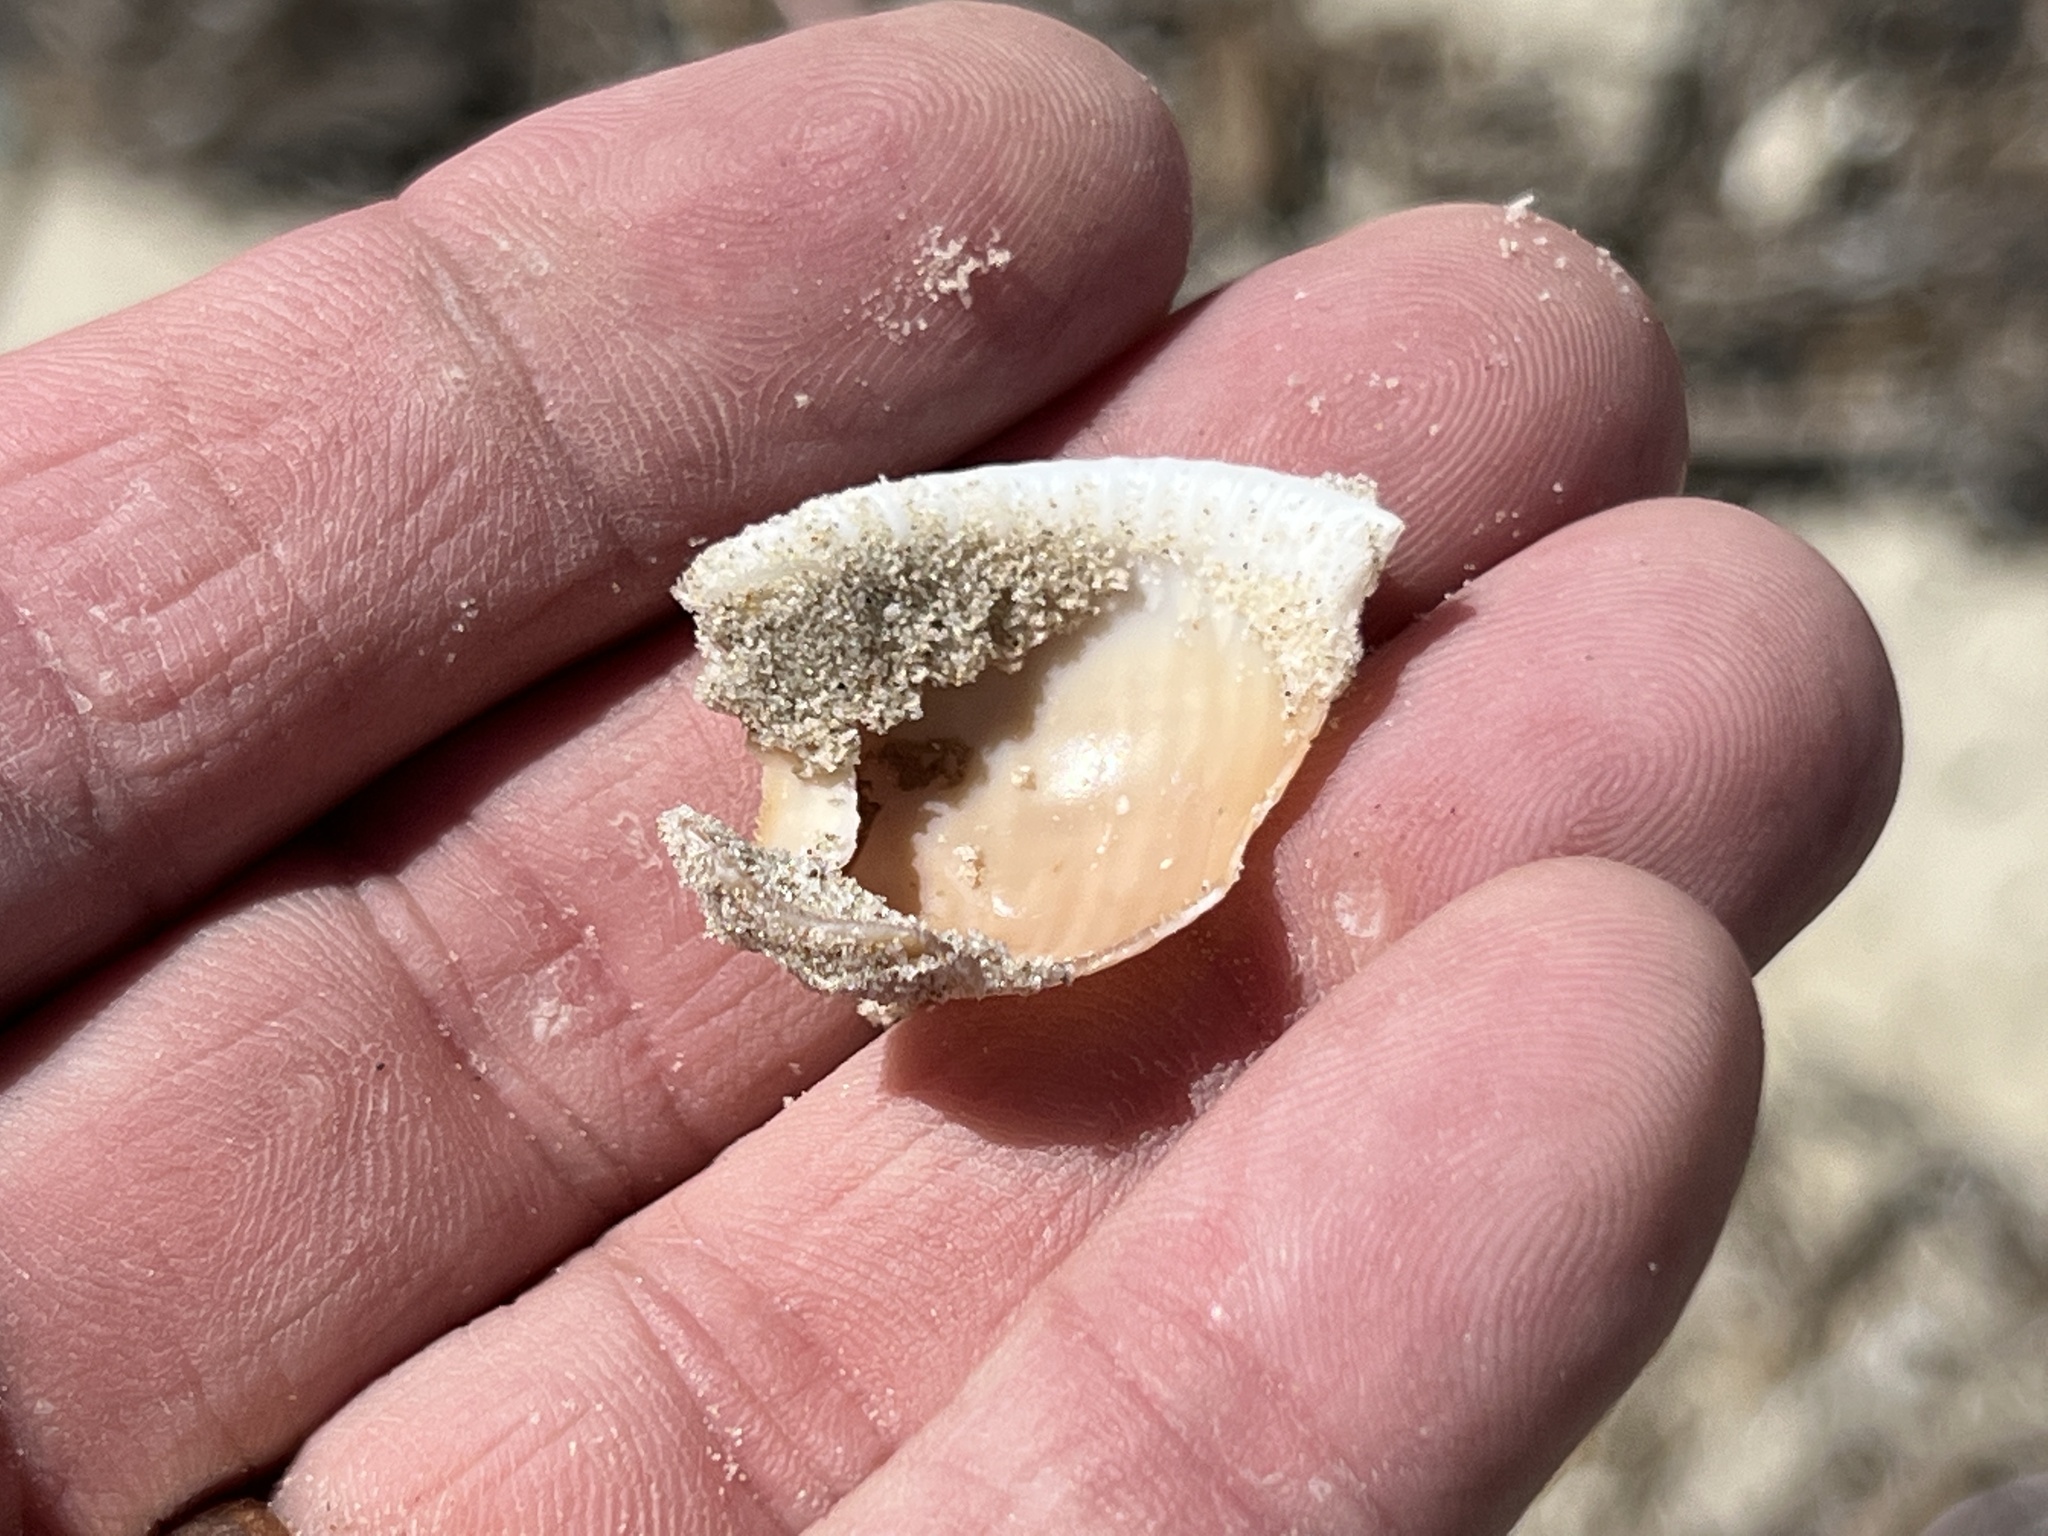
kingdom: Animalia
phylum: Mollusca
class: Gastropoda
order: Littorinimorpha
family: Cassidae
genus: Semicassis
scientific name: Semicassis granulata
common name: Scotch bonnet
